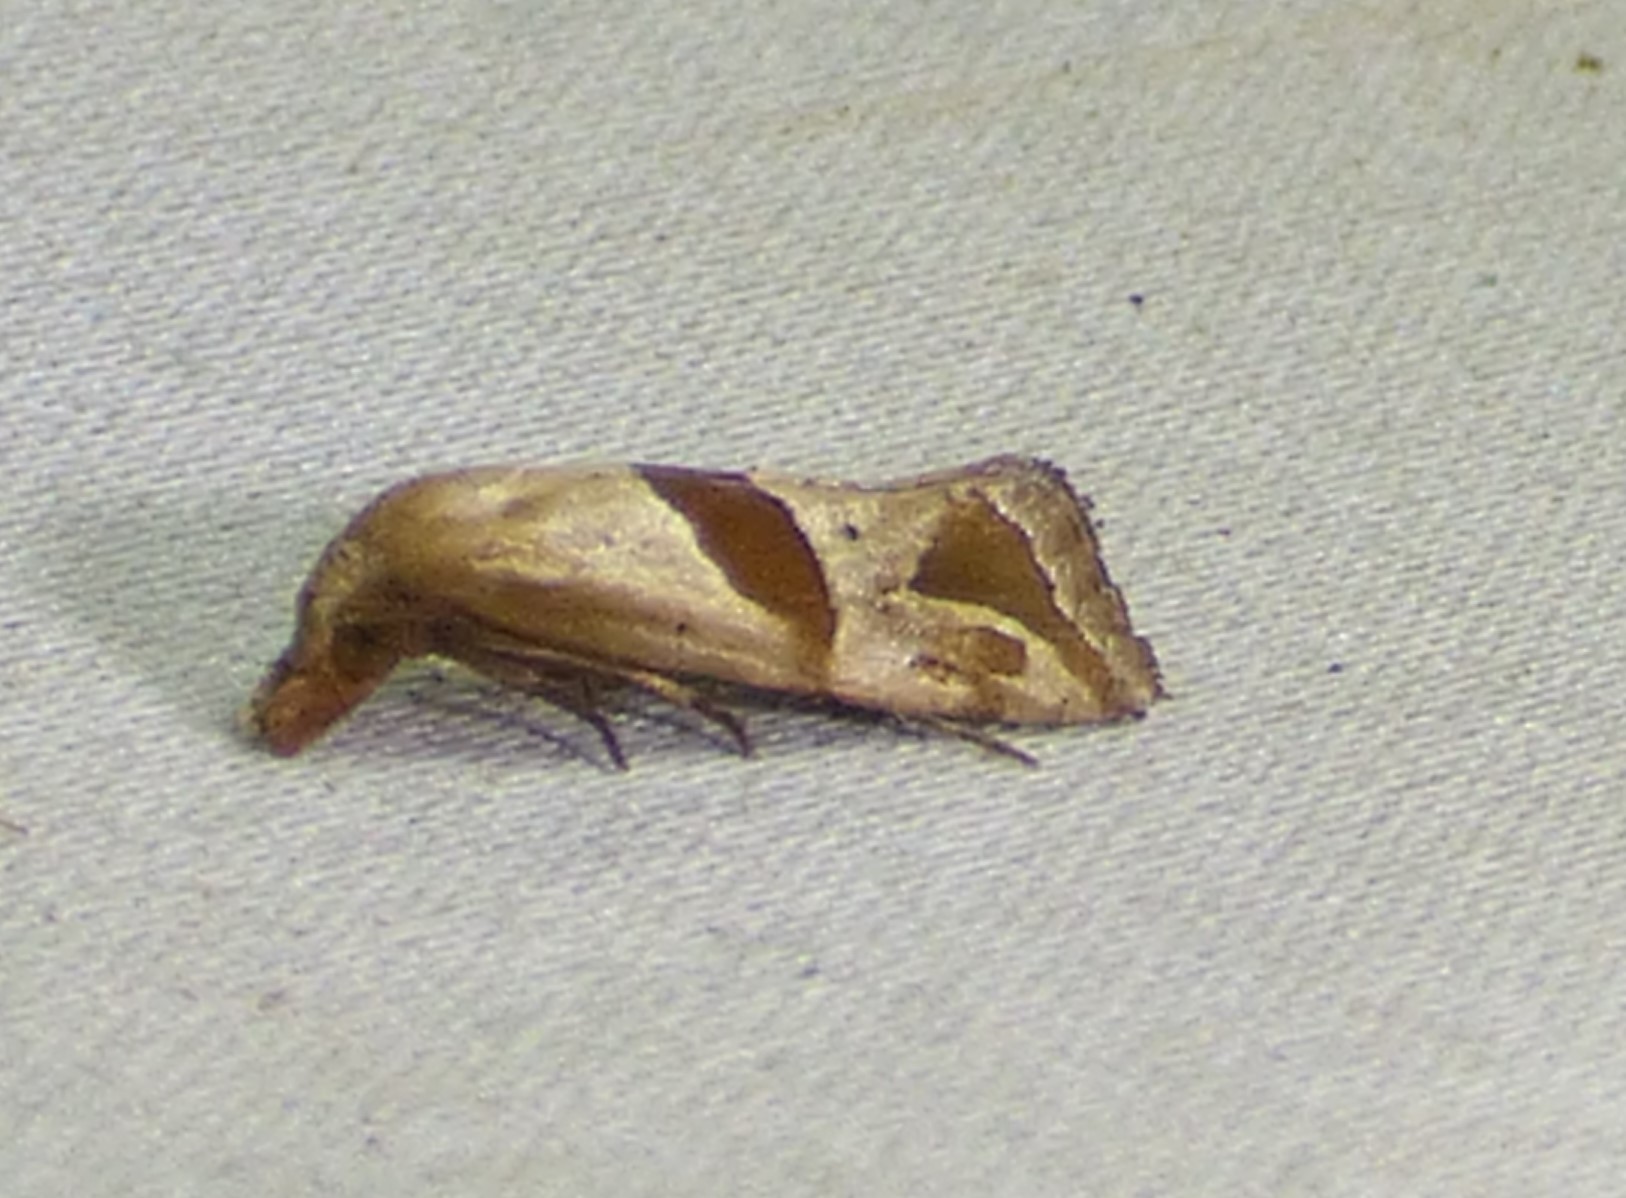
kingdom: Animalia
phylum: Arthropoda
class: Insecta
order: Lepidoptera
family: Tortricidae
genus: Eugnosta
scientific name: Eugnosta sartana
